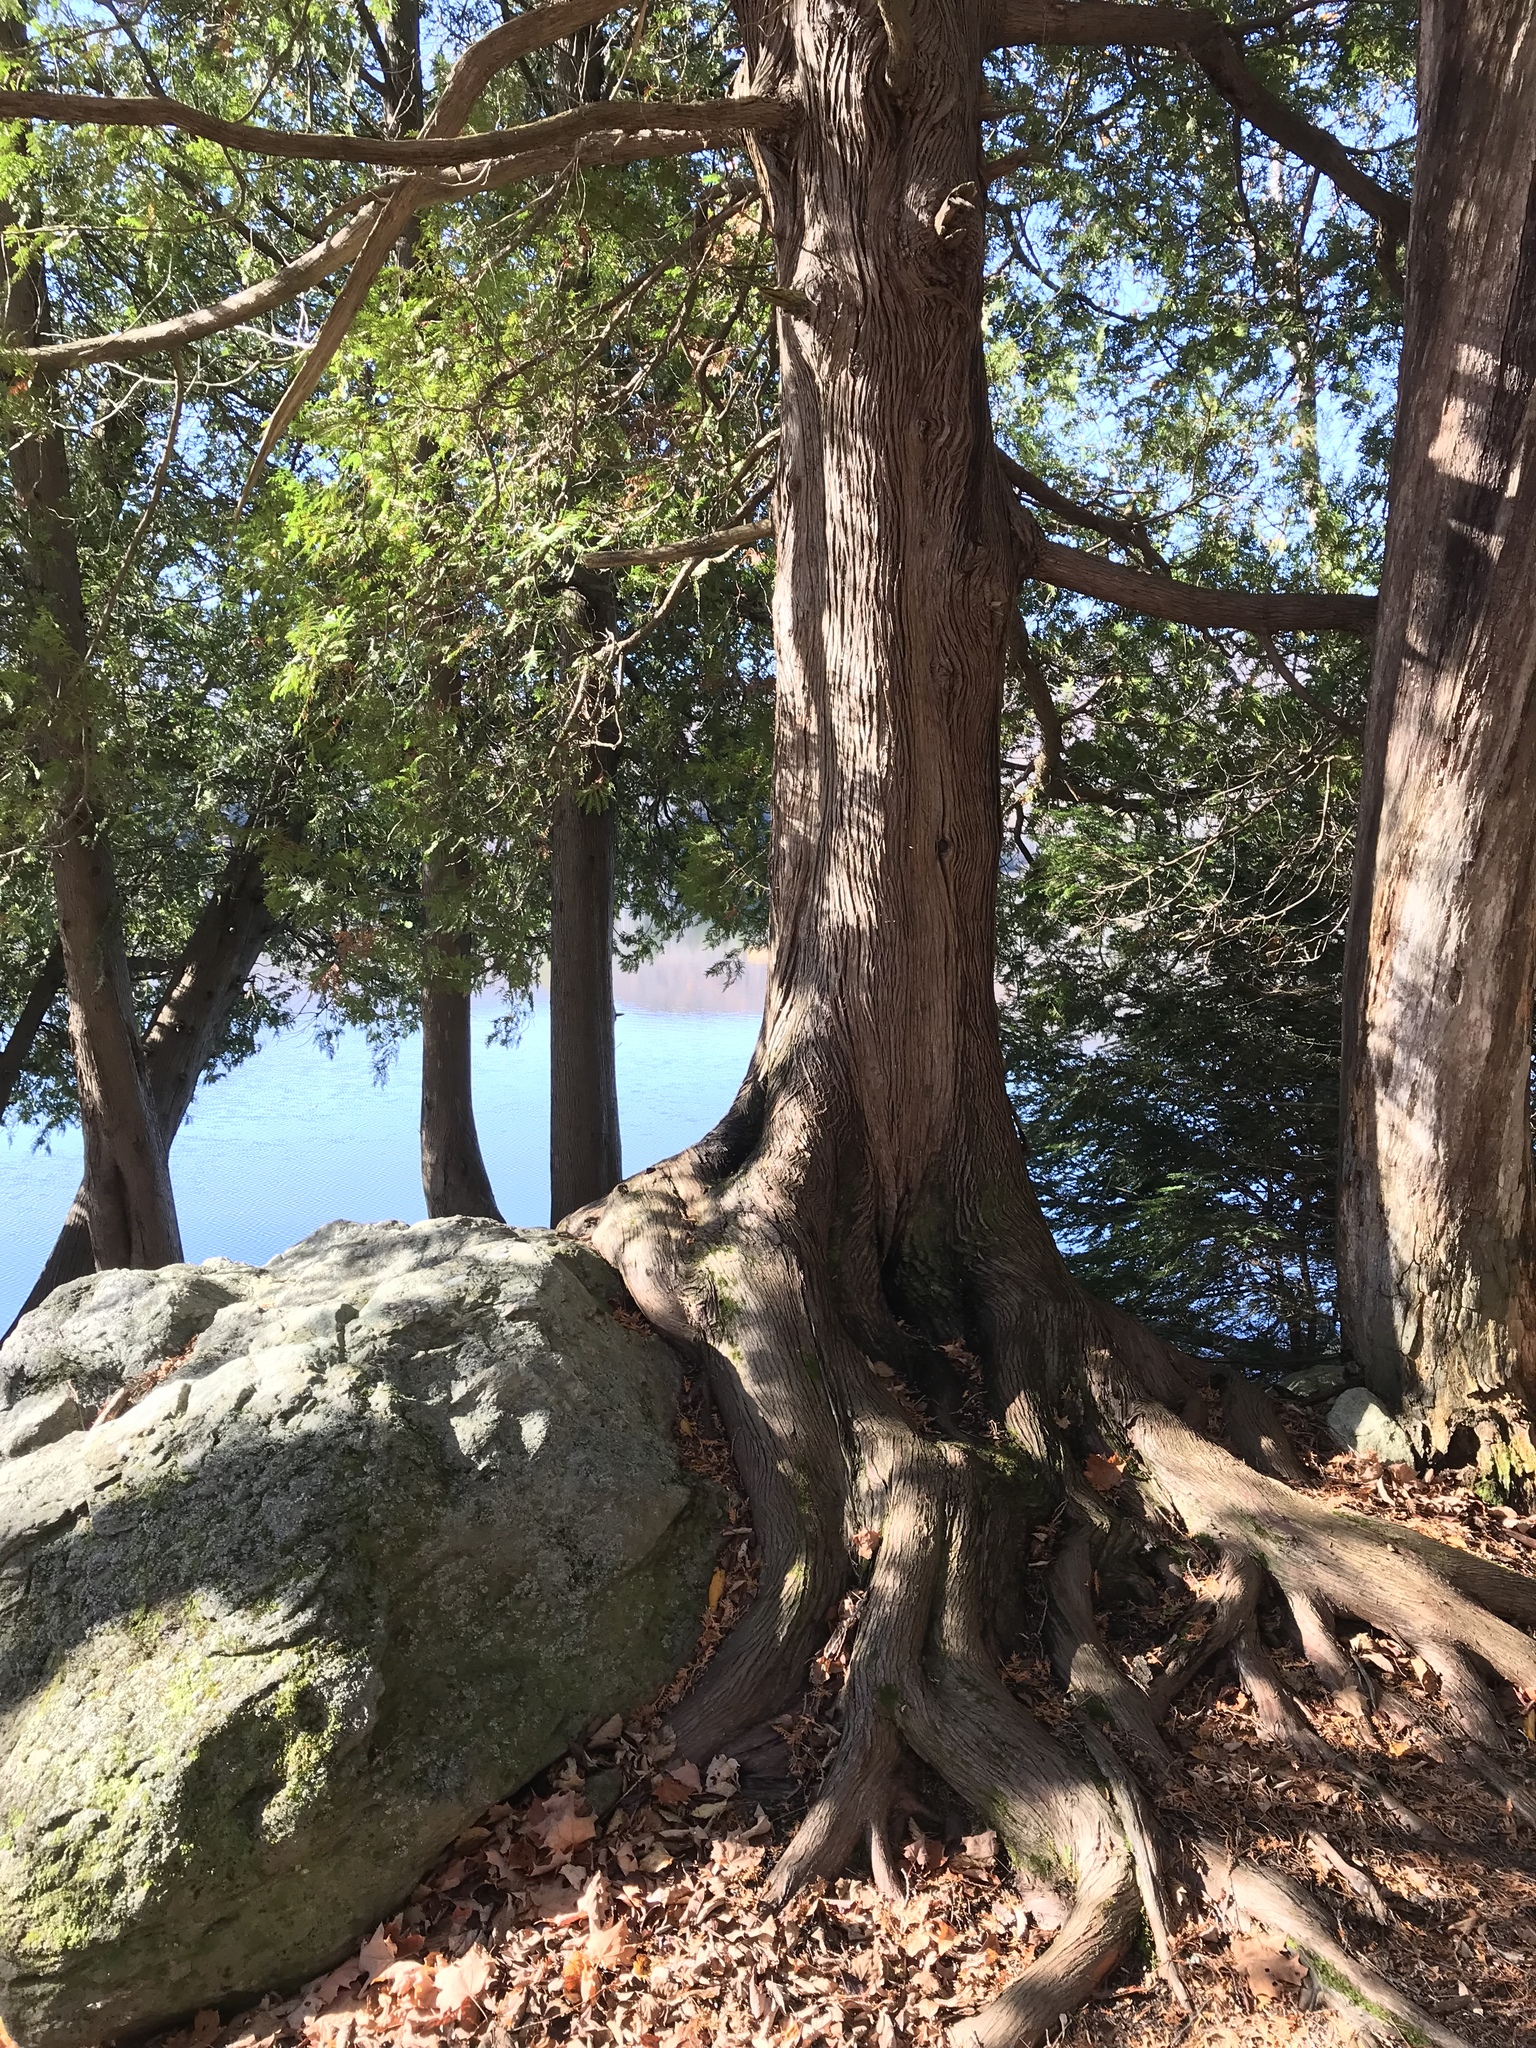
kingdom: Plantae
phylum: Tracheophyta
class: Pinopsida
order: Pinales
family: Cupressaceae
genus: Thuja
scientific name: Thuja occidentalis
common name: Northern white-cedar
